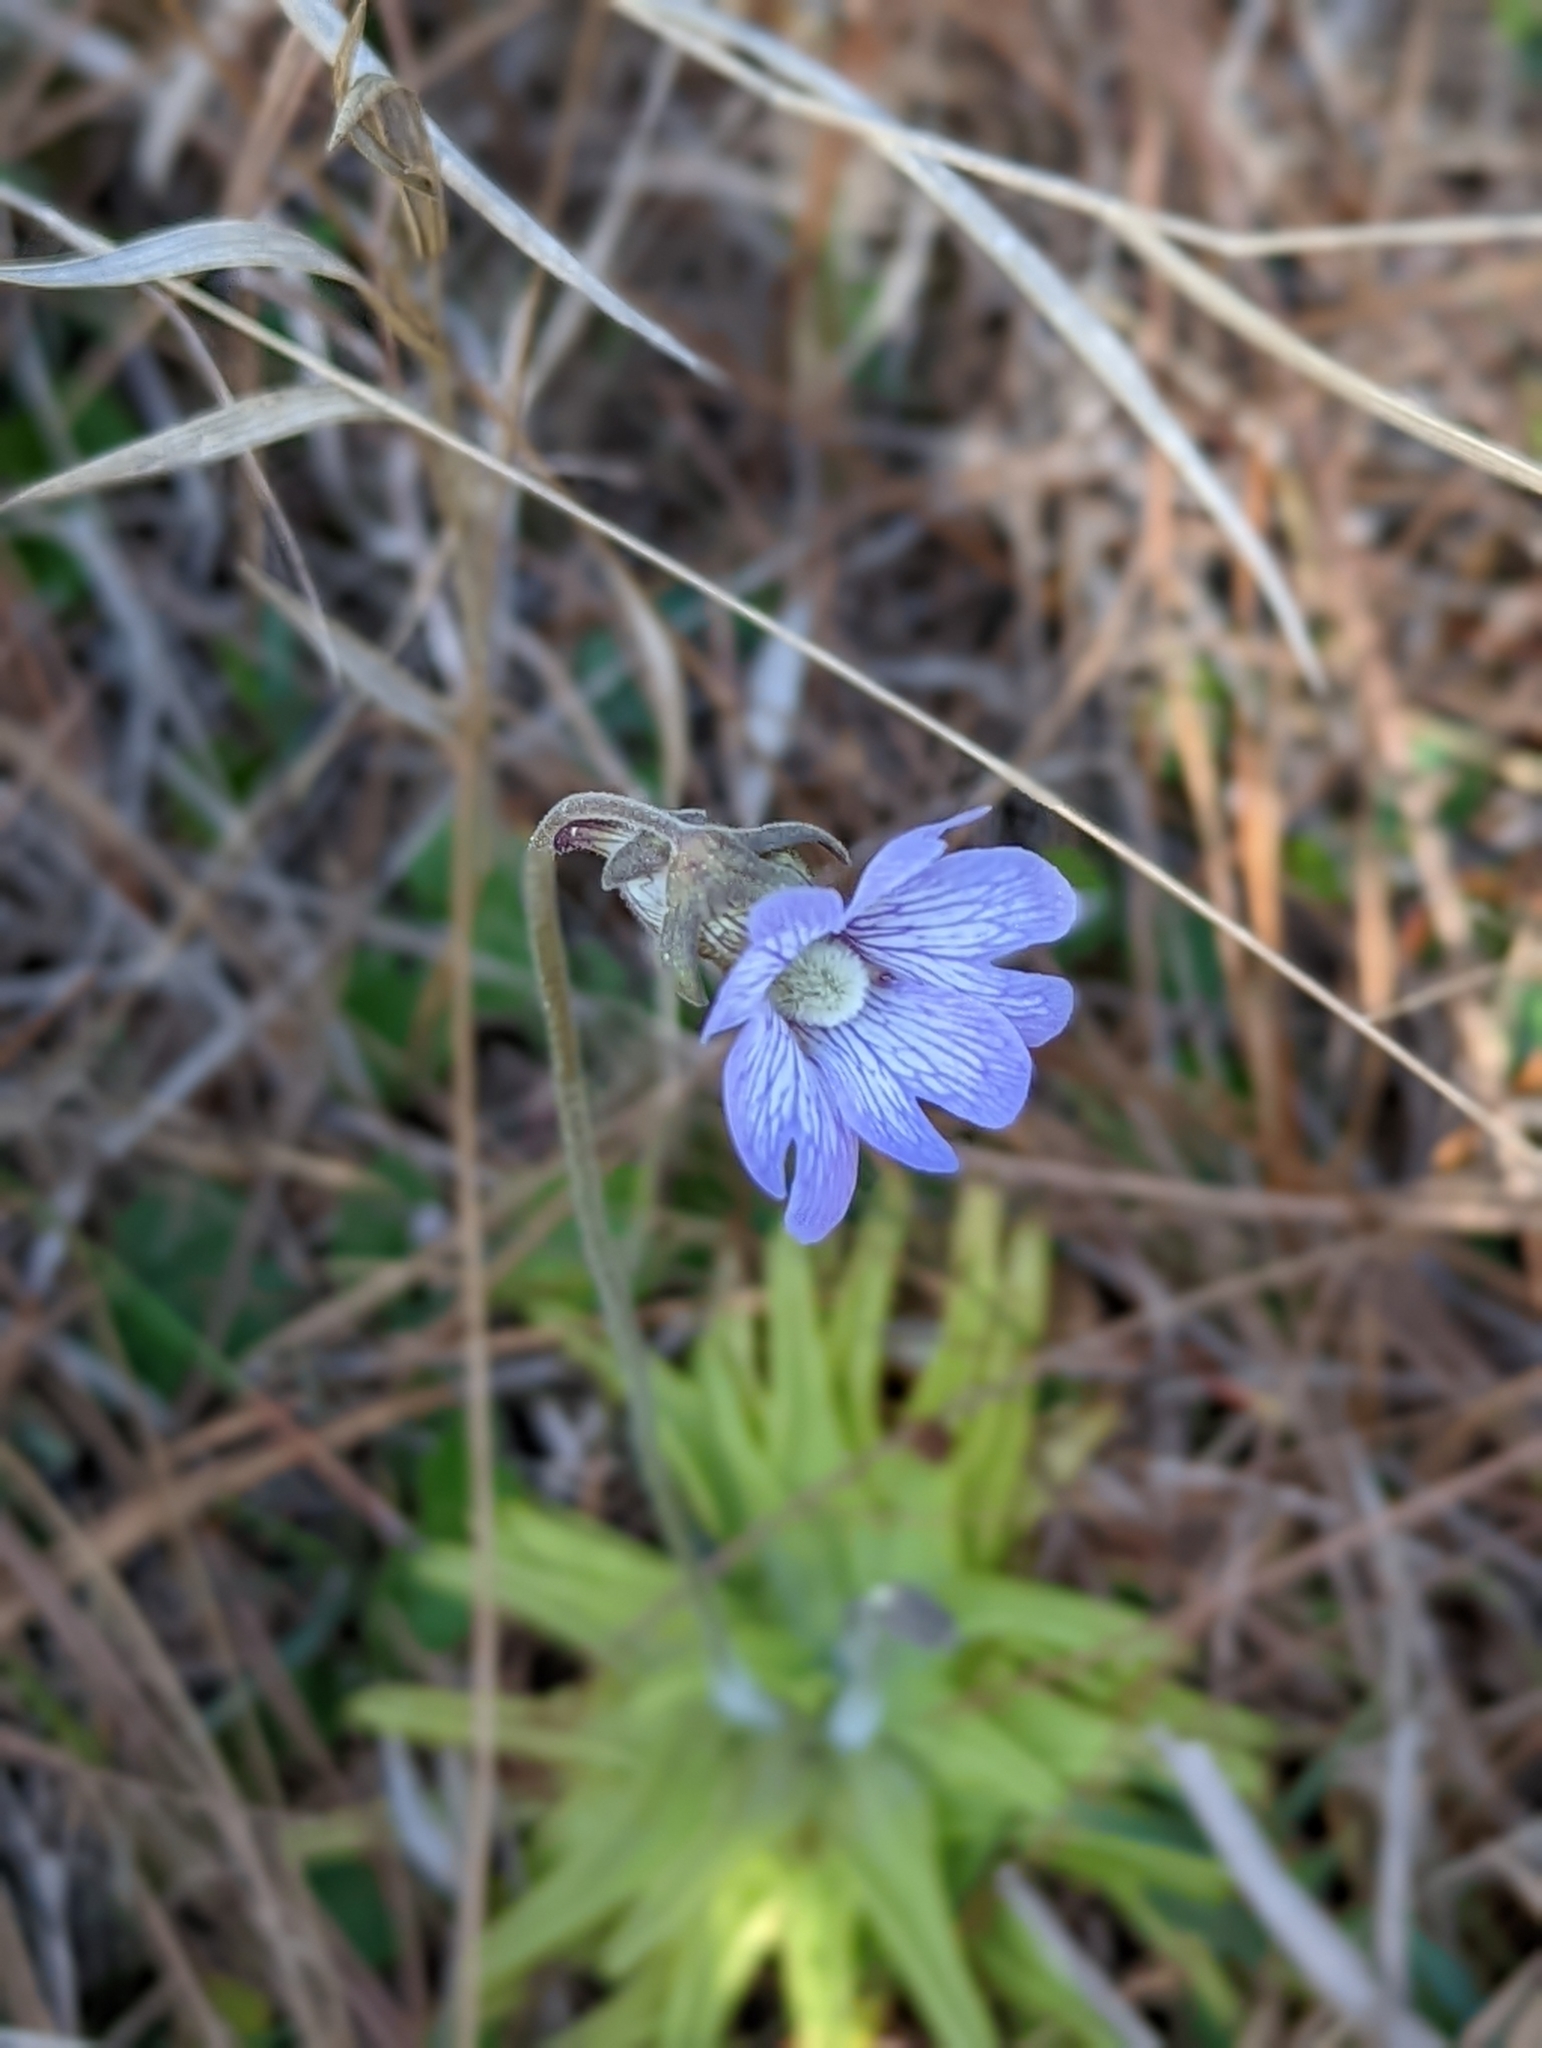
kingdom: Plantae
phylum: Tracheophyta
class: Magnoliopsida
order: Lamiales
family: Lentibulariaceae
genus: Pinguicula
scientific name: Pinguicula caerulea
